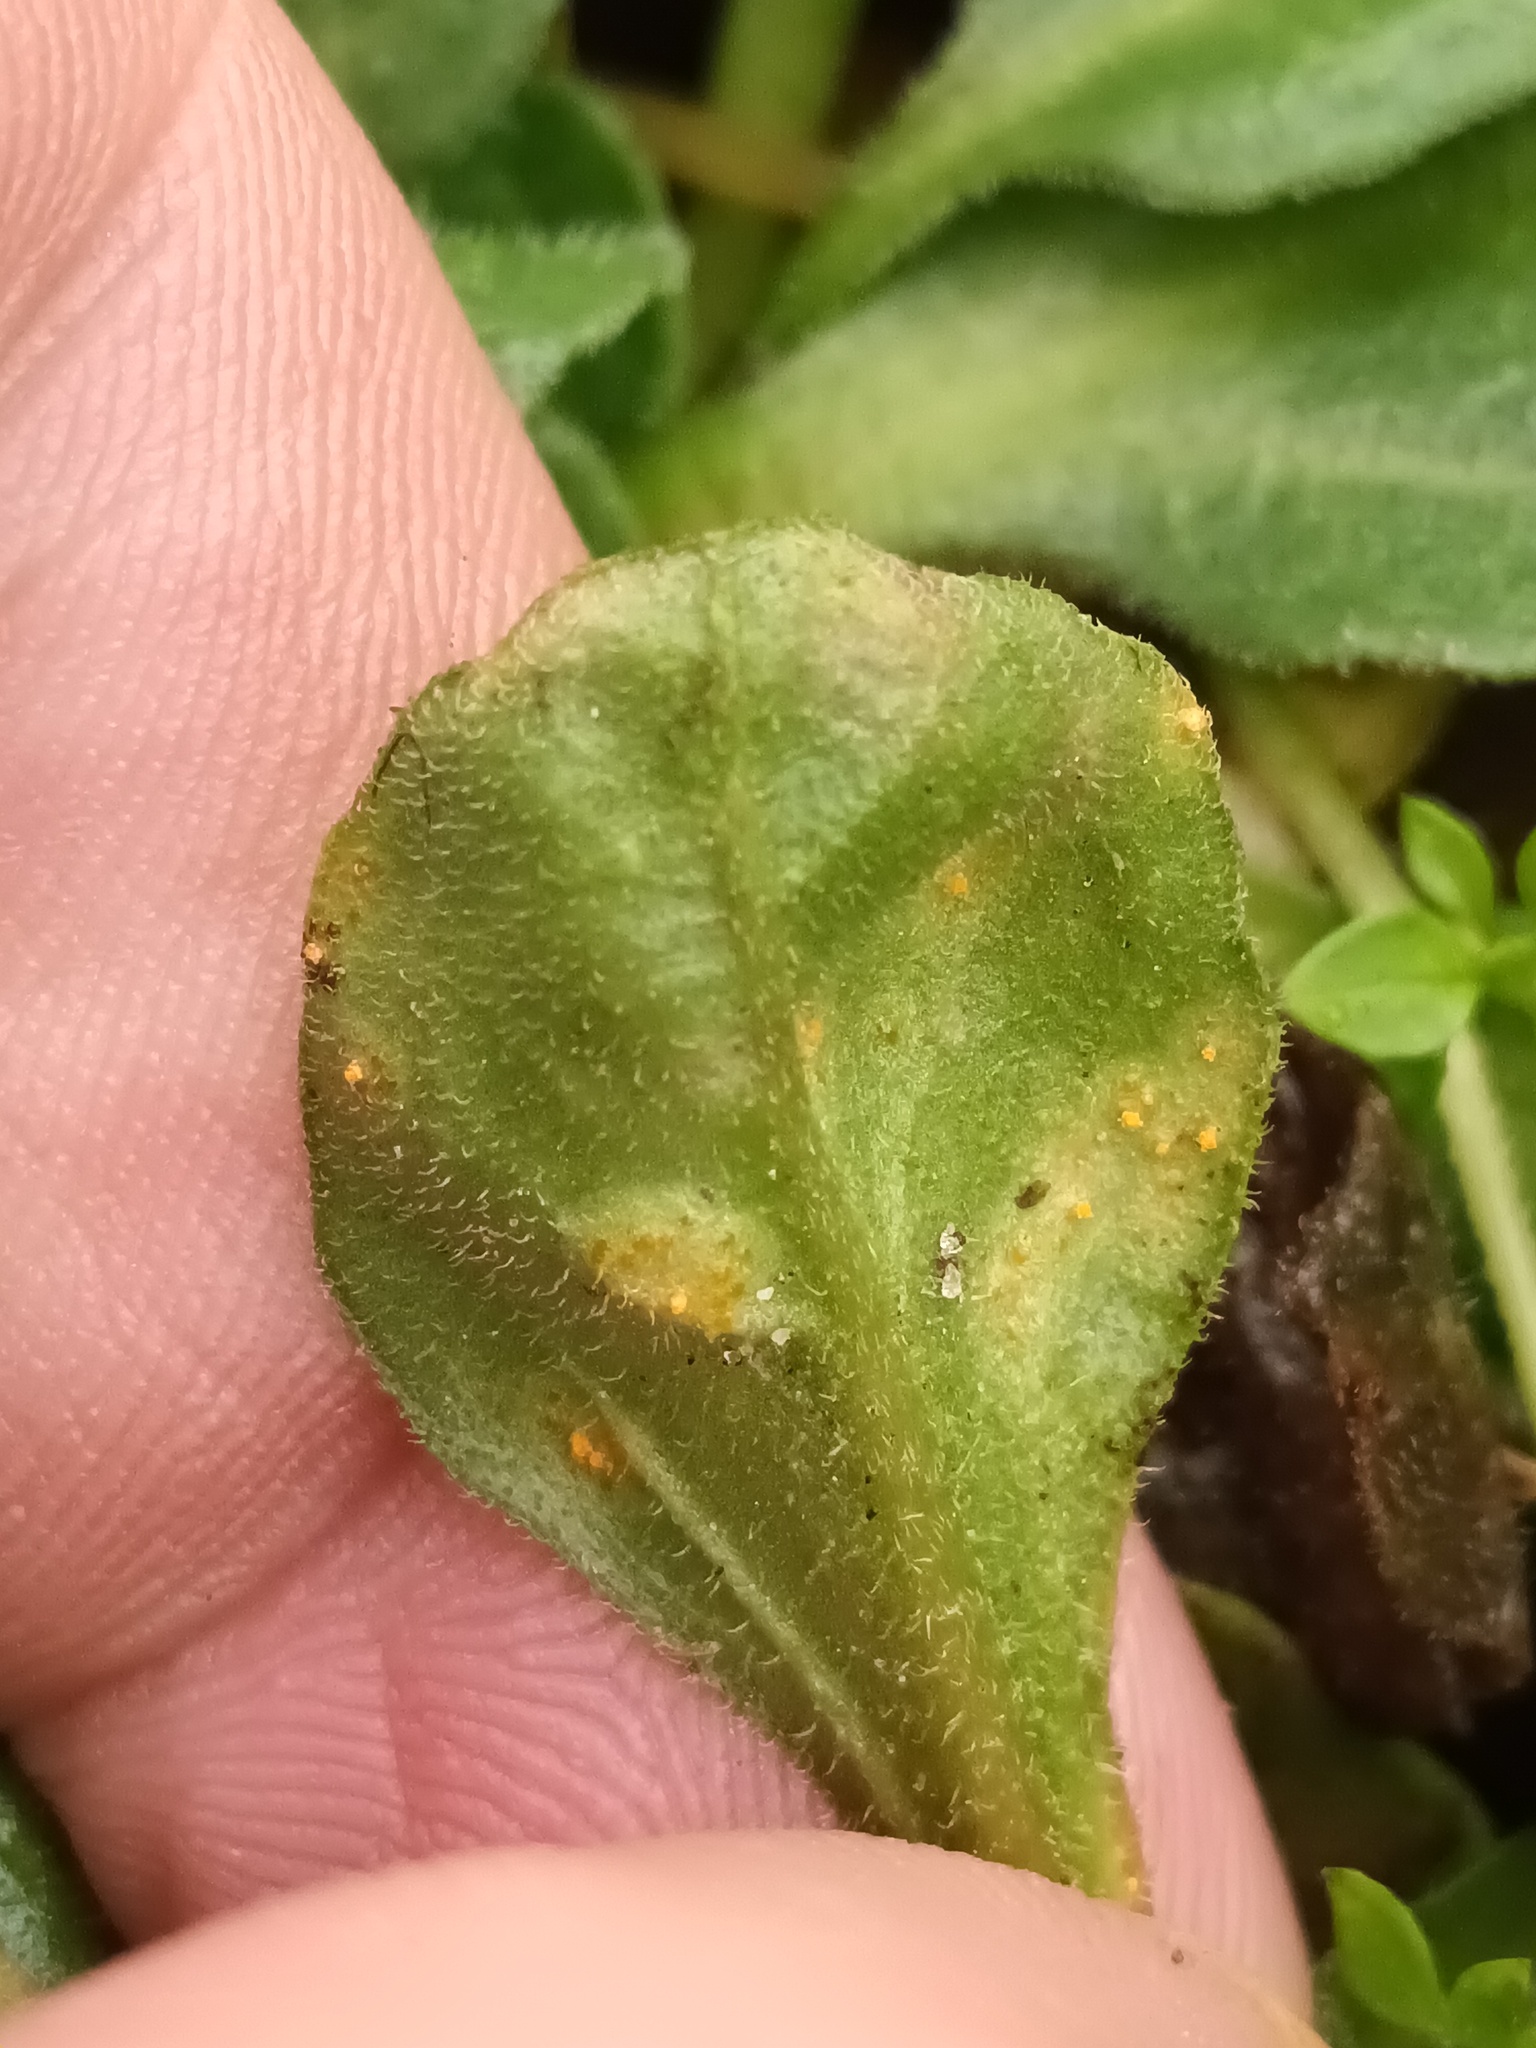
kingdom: Fungi
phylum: Basidiomycota
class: Pucciniomycetes
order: Pucciniales
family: Pucciniaceae
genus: Puccinia
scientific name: Puccinia lagenophorae
